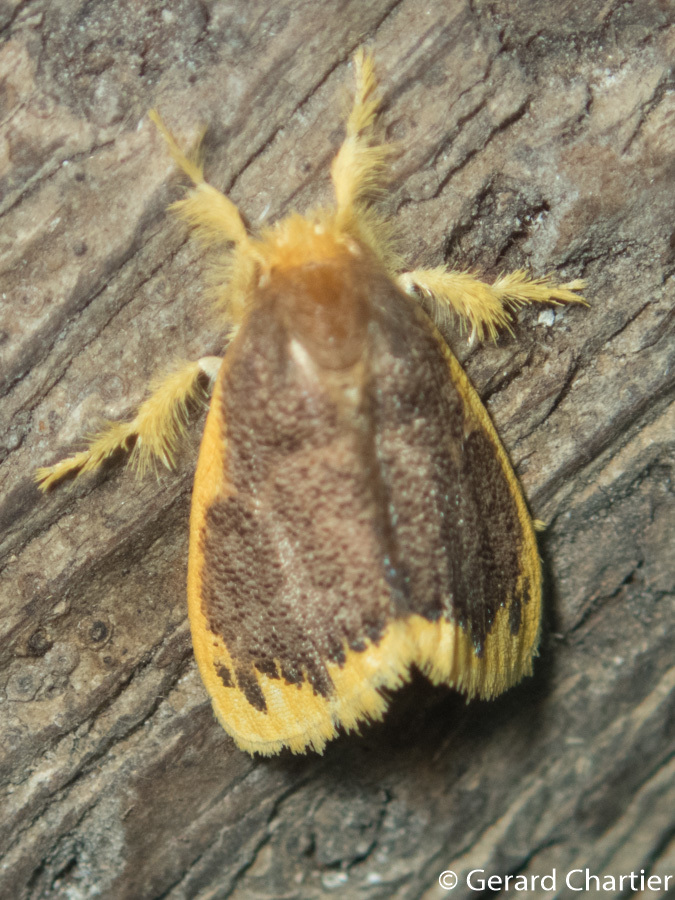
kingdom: Animalia
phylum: Arthropoda
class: Insecta
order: Lepidoptera
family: Erebidae
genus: Somena
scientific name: Somena scintillans
